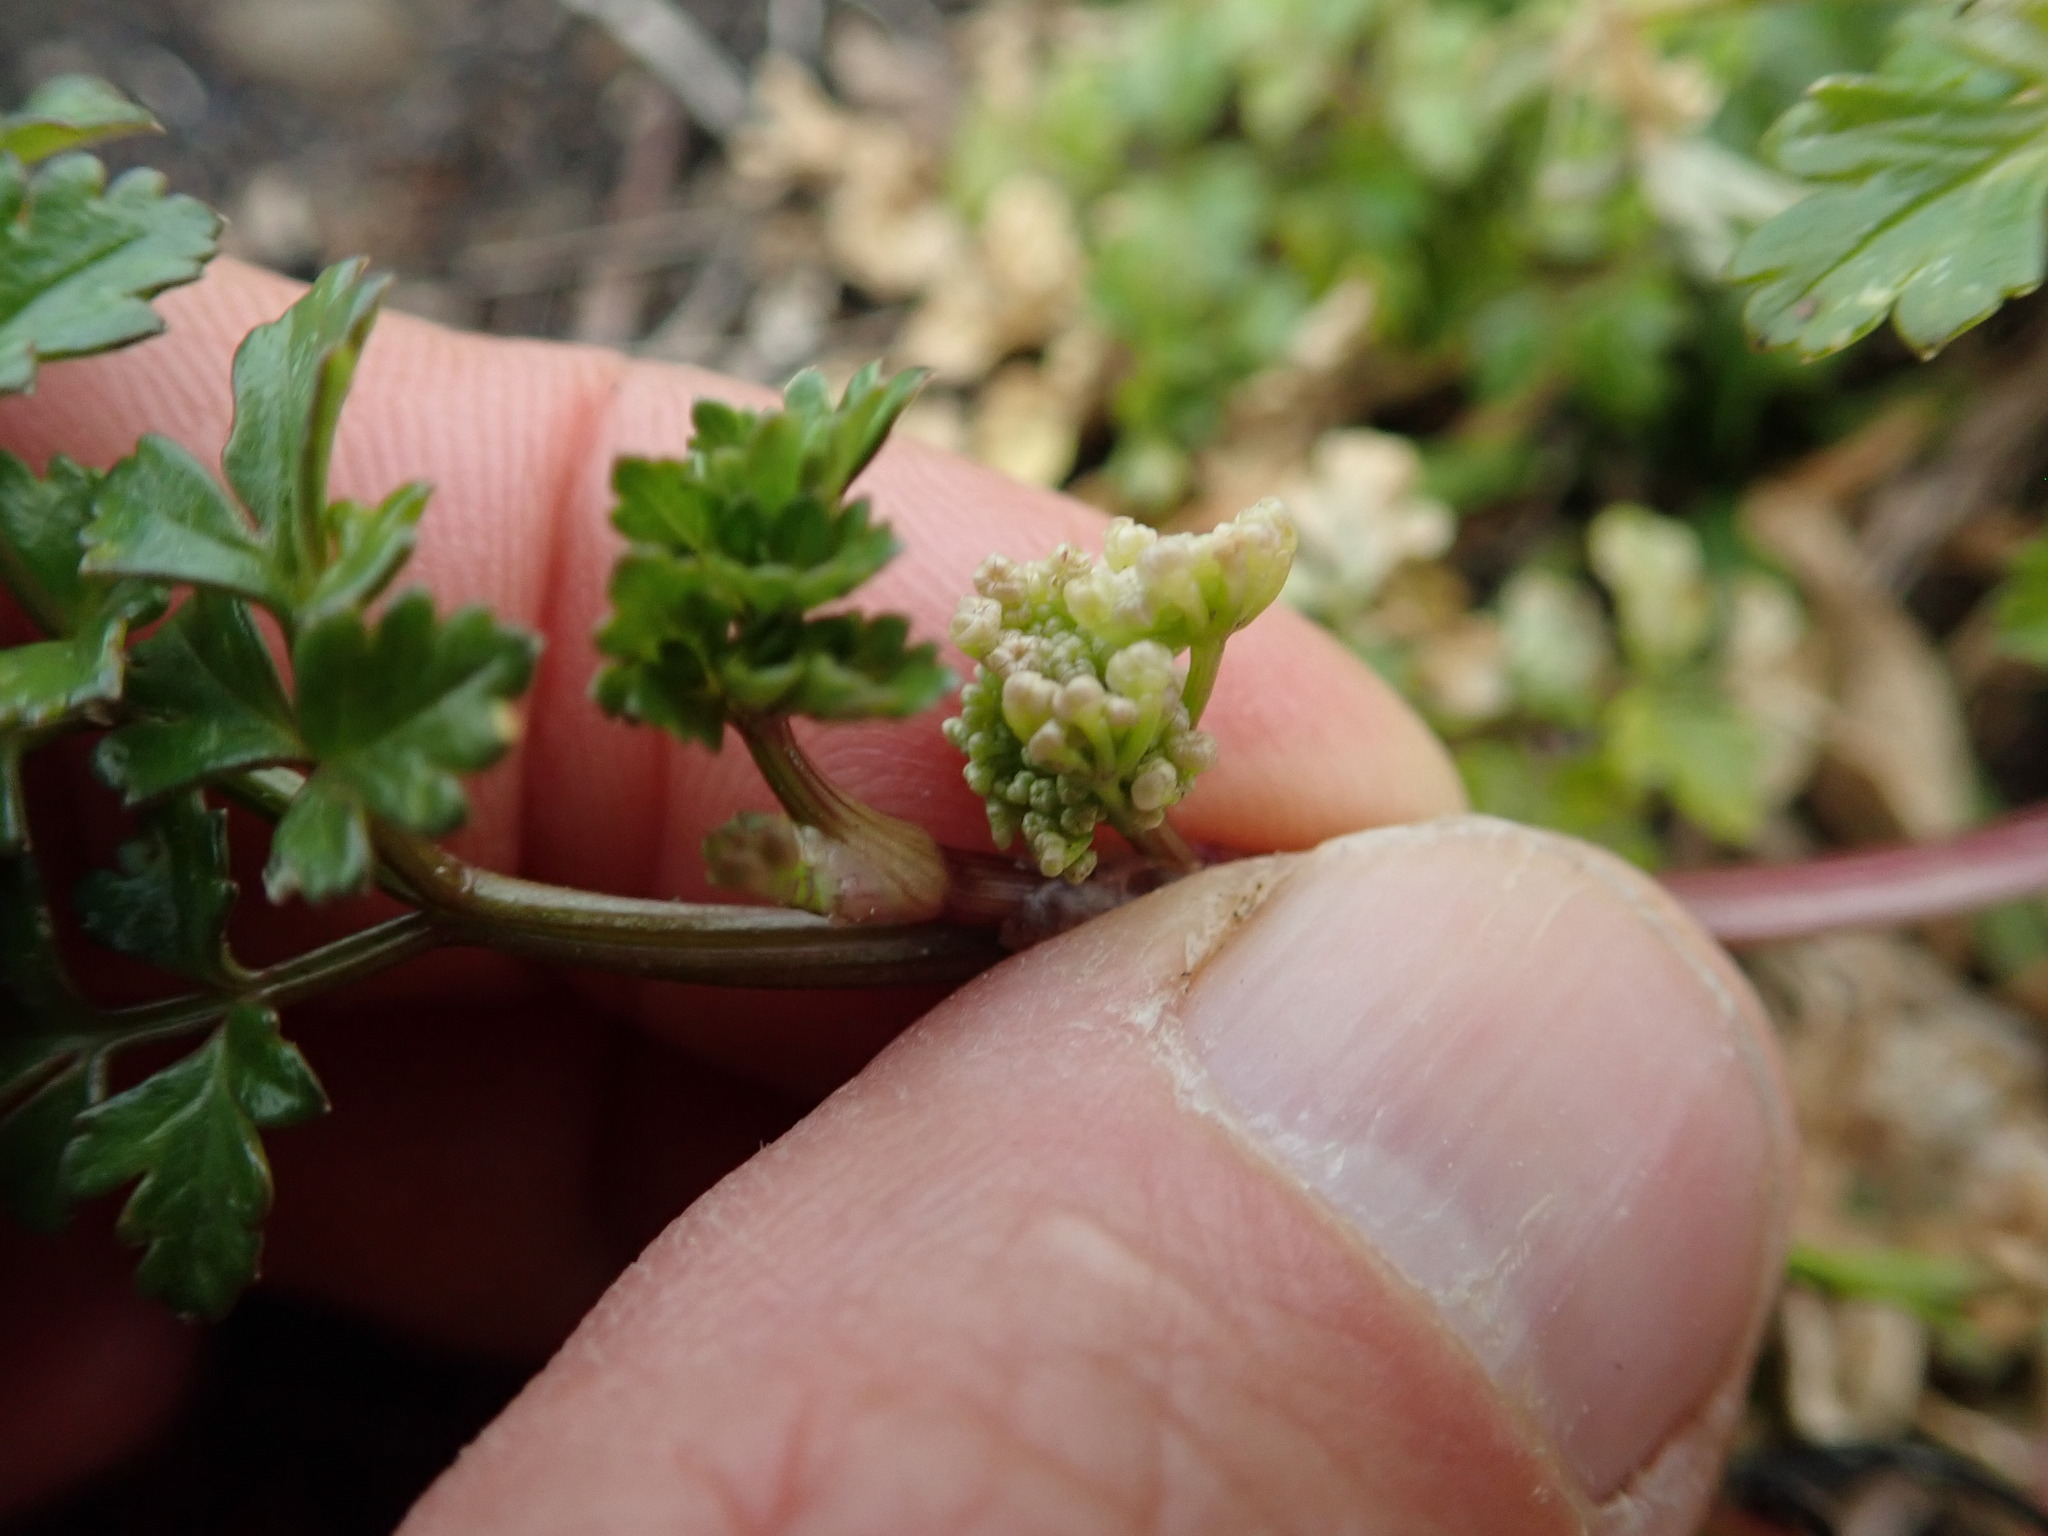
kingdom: Plantae
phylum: Tracheophyta
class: Magnoliopsida
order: Apiales
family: Apiaceae
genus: Apium
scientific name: Apium prostratum
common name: Prostrate marshwort
